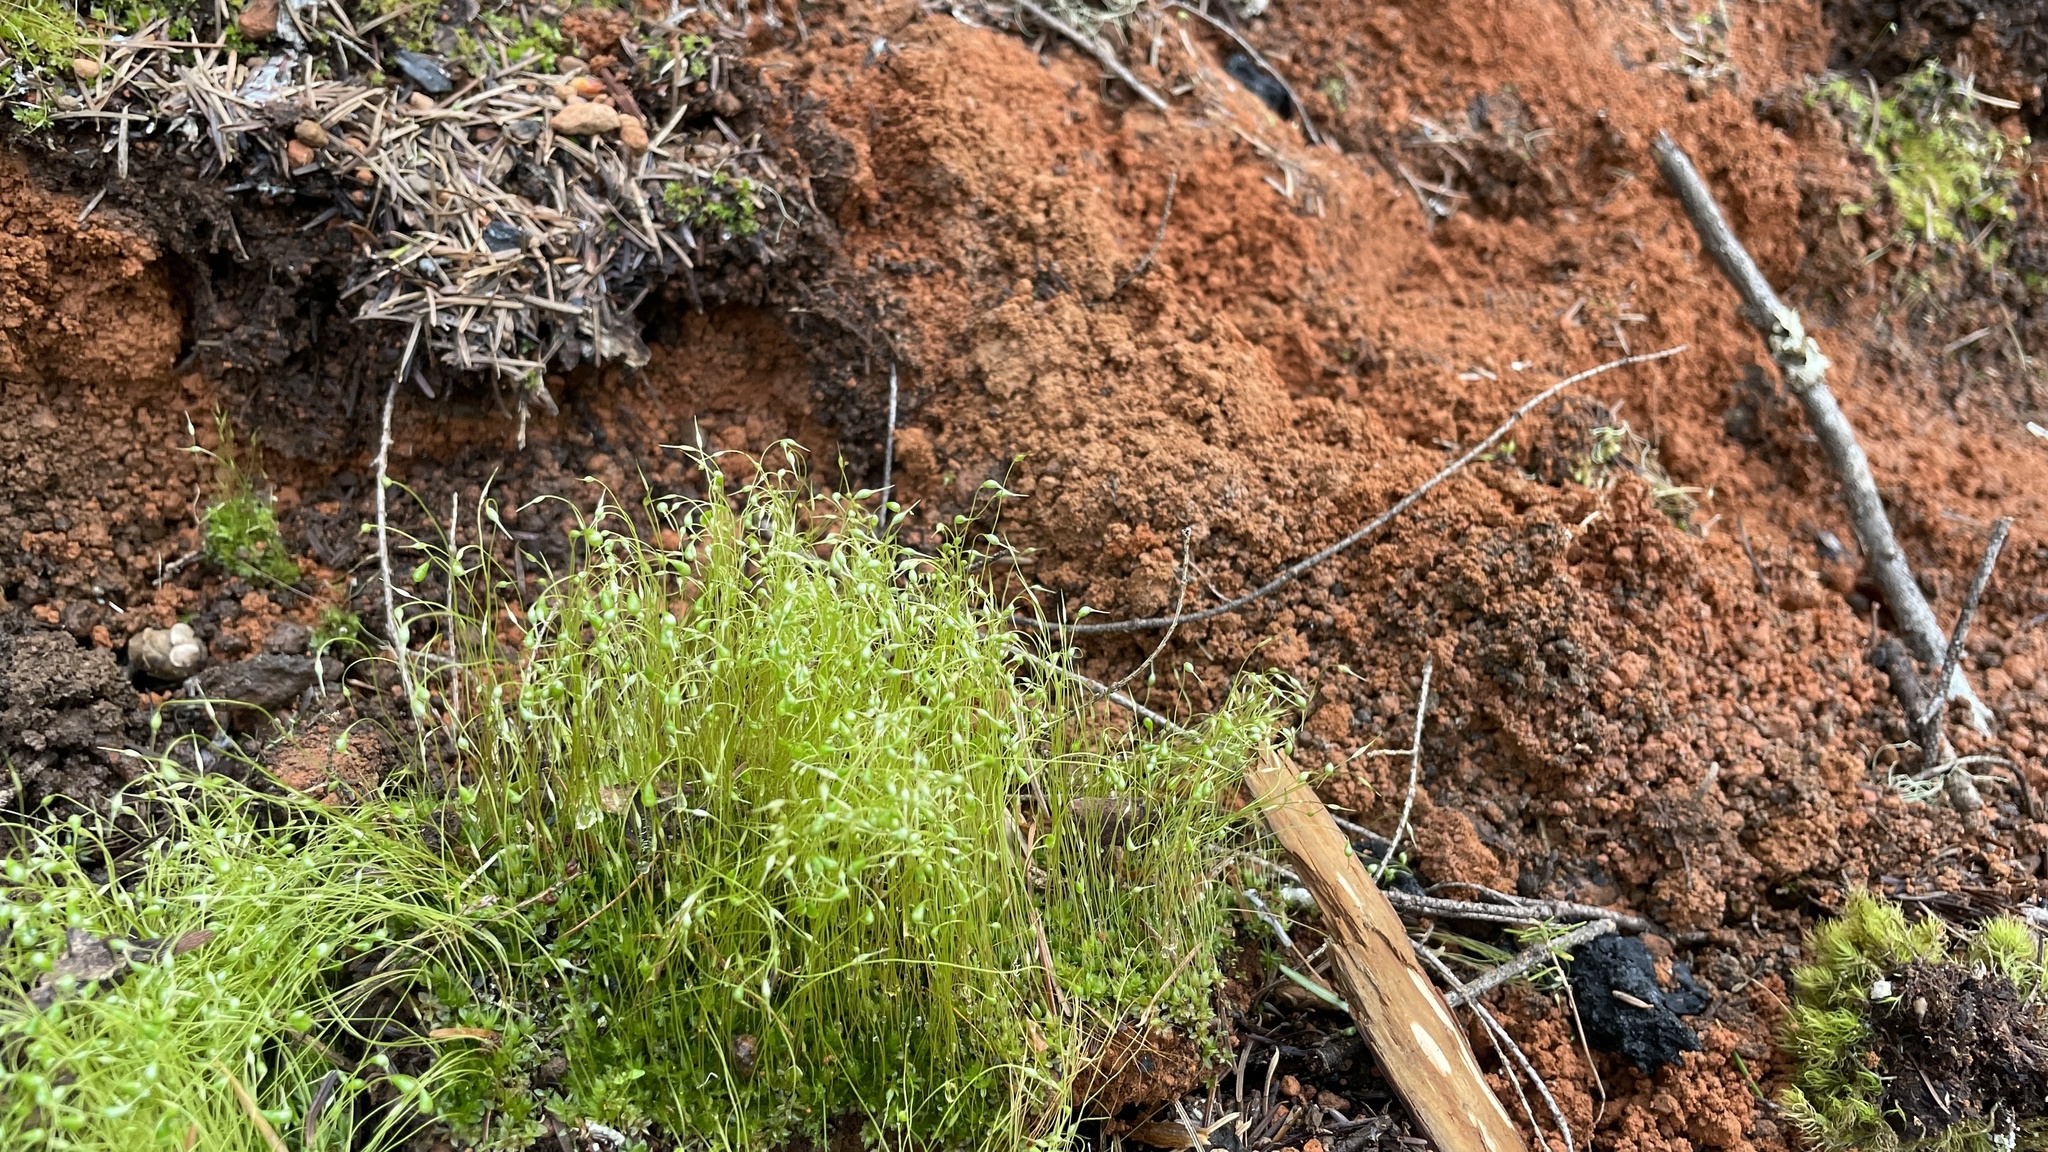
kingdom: Plantae
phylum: Bryophyta
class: Bryopsida
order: Funariales
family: Funariaceae
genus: Funaria
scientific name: Funaria hygrometrica
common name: Common cord moss
